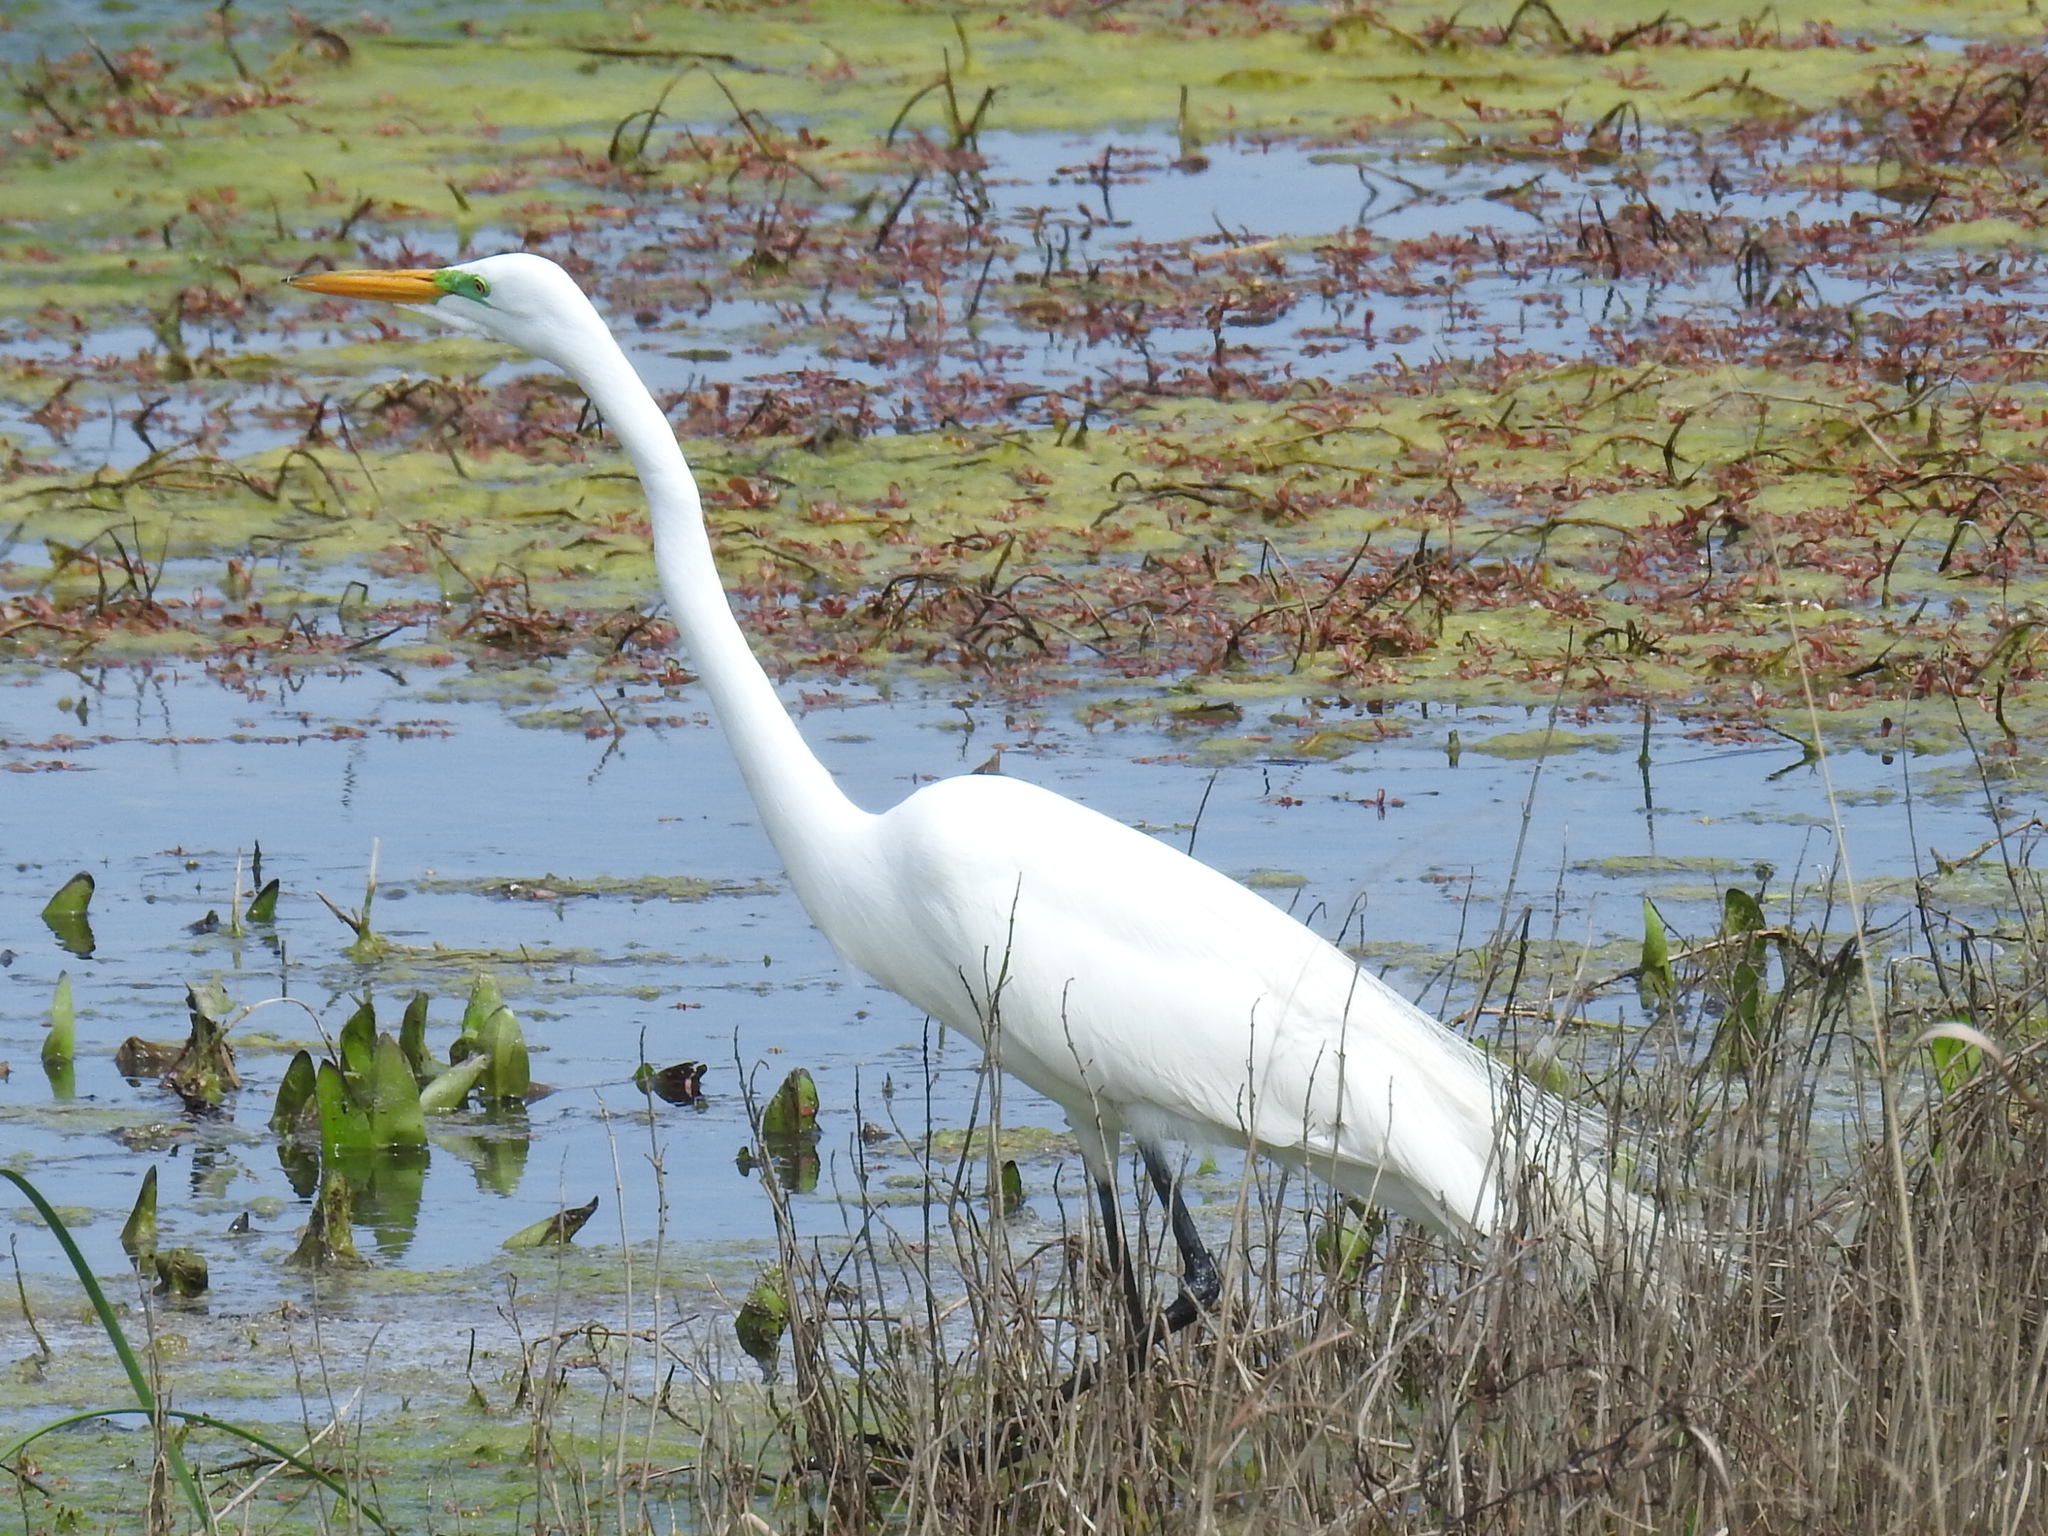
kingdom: Animalia
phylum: Chordata
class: Aves
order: Pelecaniformes
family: Ardeidae
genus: Ardea
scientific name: Ardea alba
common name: Great egret
